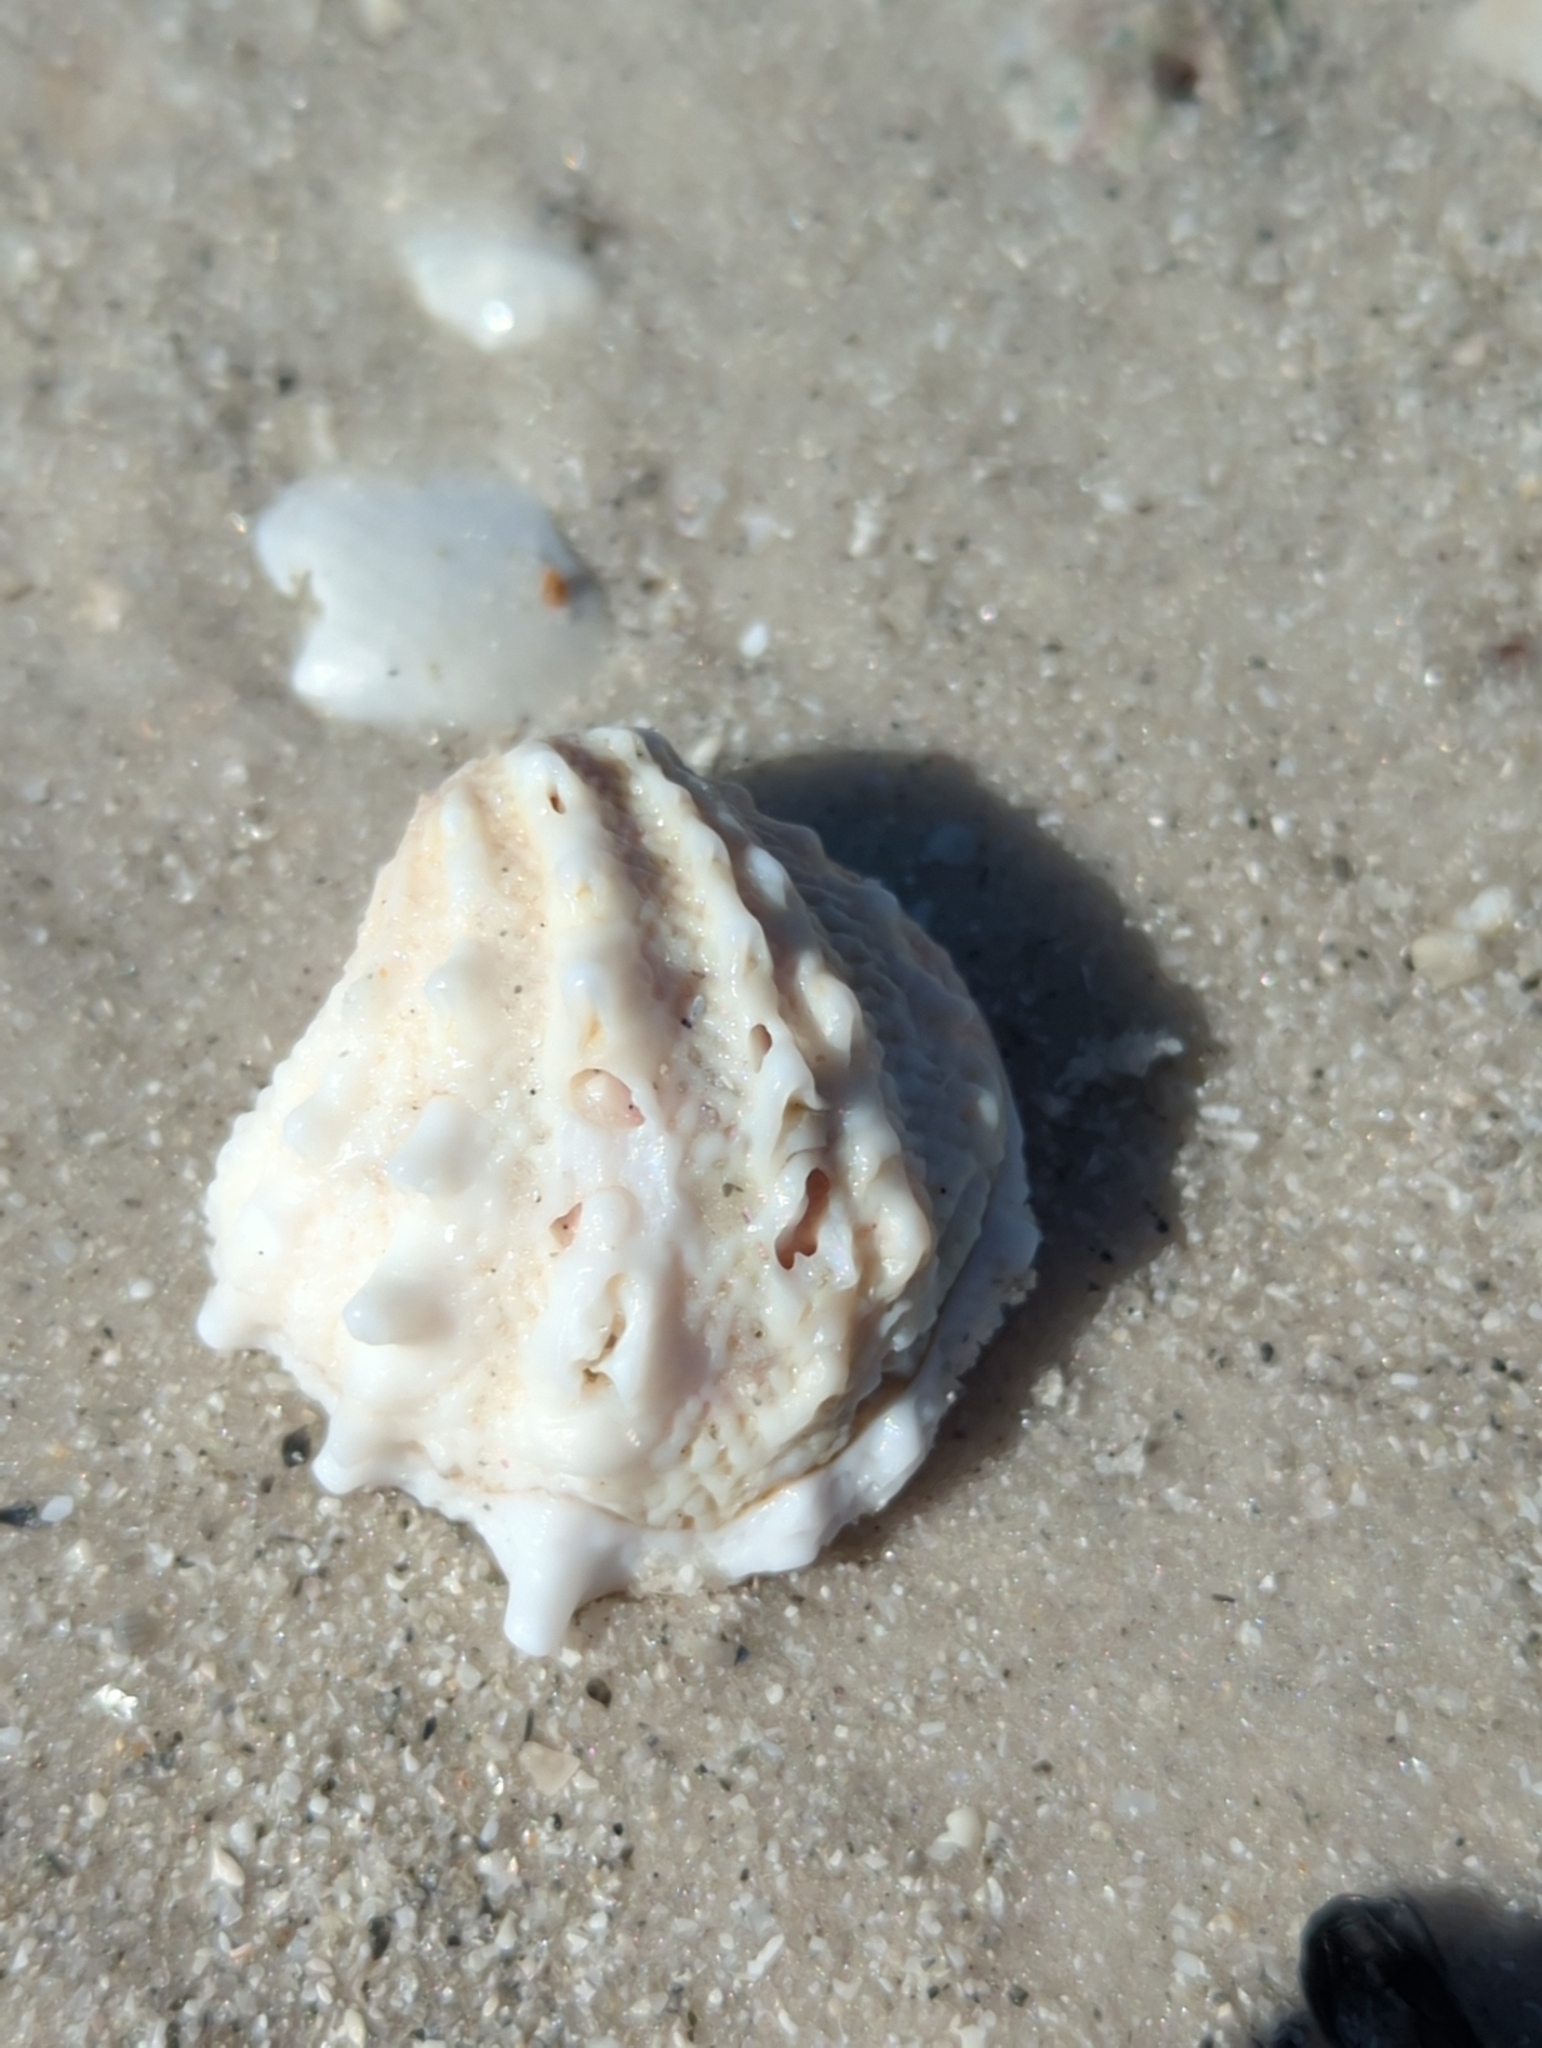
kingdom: Animalia
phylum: Mollusca
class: Bivalvia
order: Venerida
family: Chamidae
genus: Arcinella
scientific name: Arcinella cornuta
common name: Florida spiny jewel box
